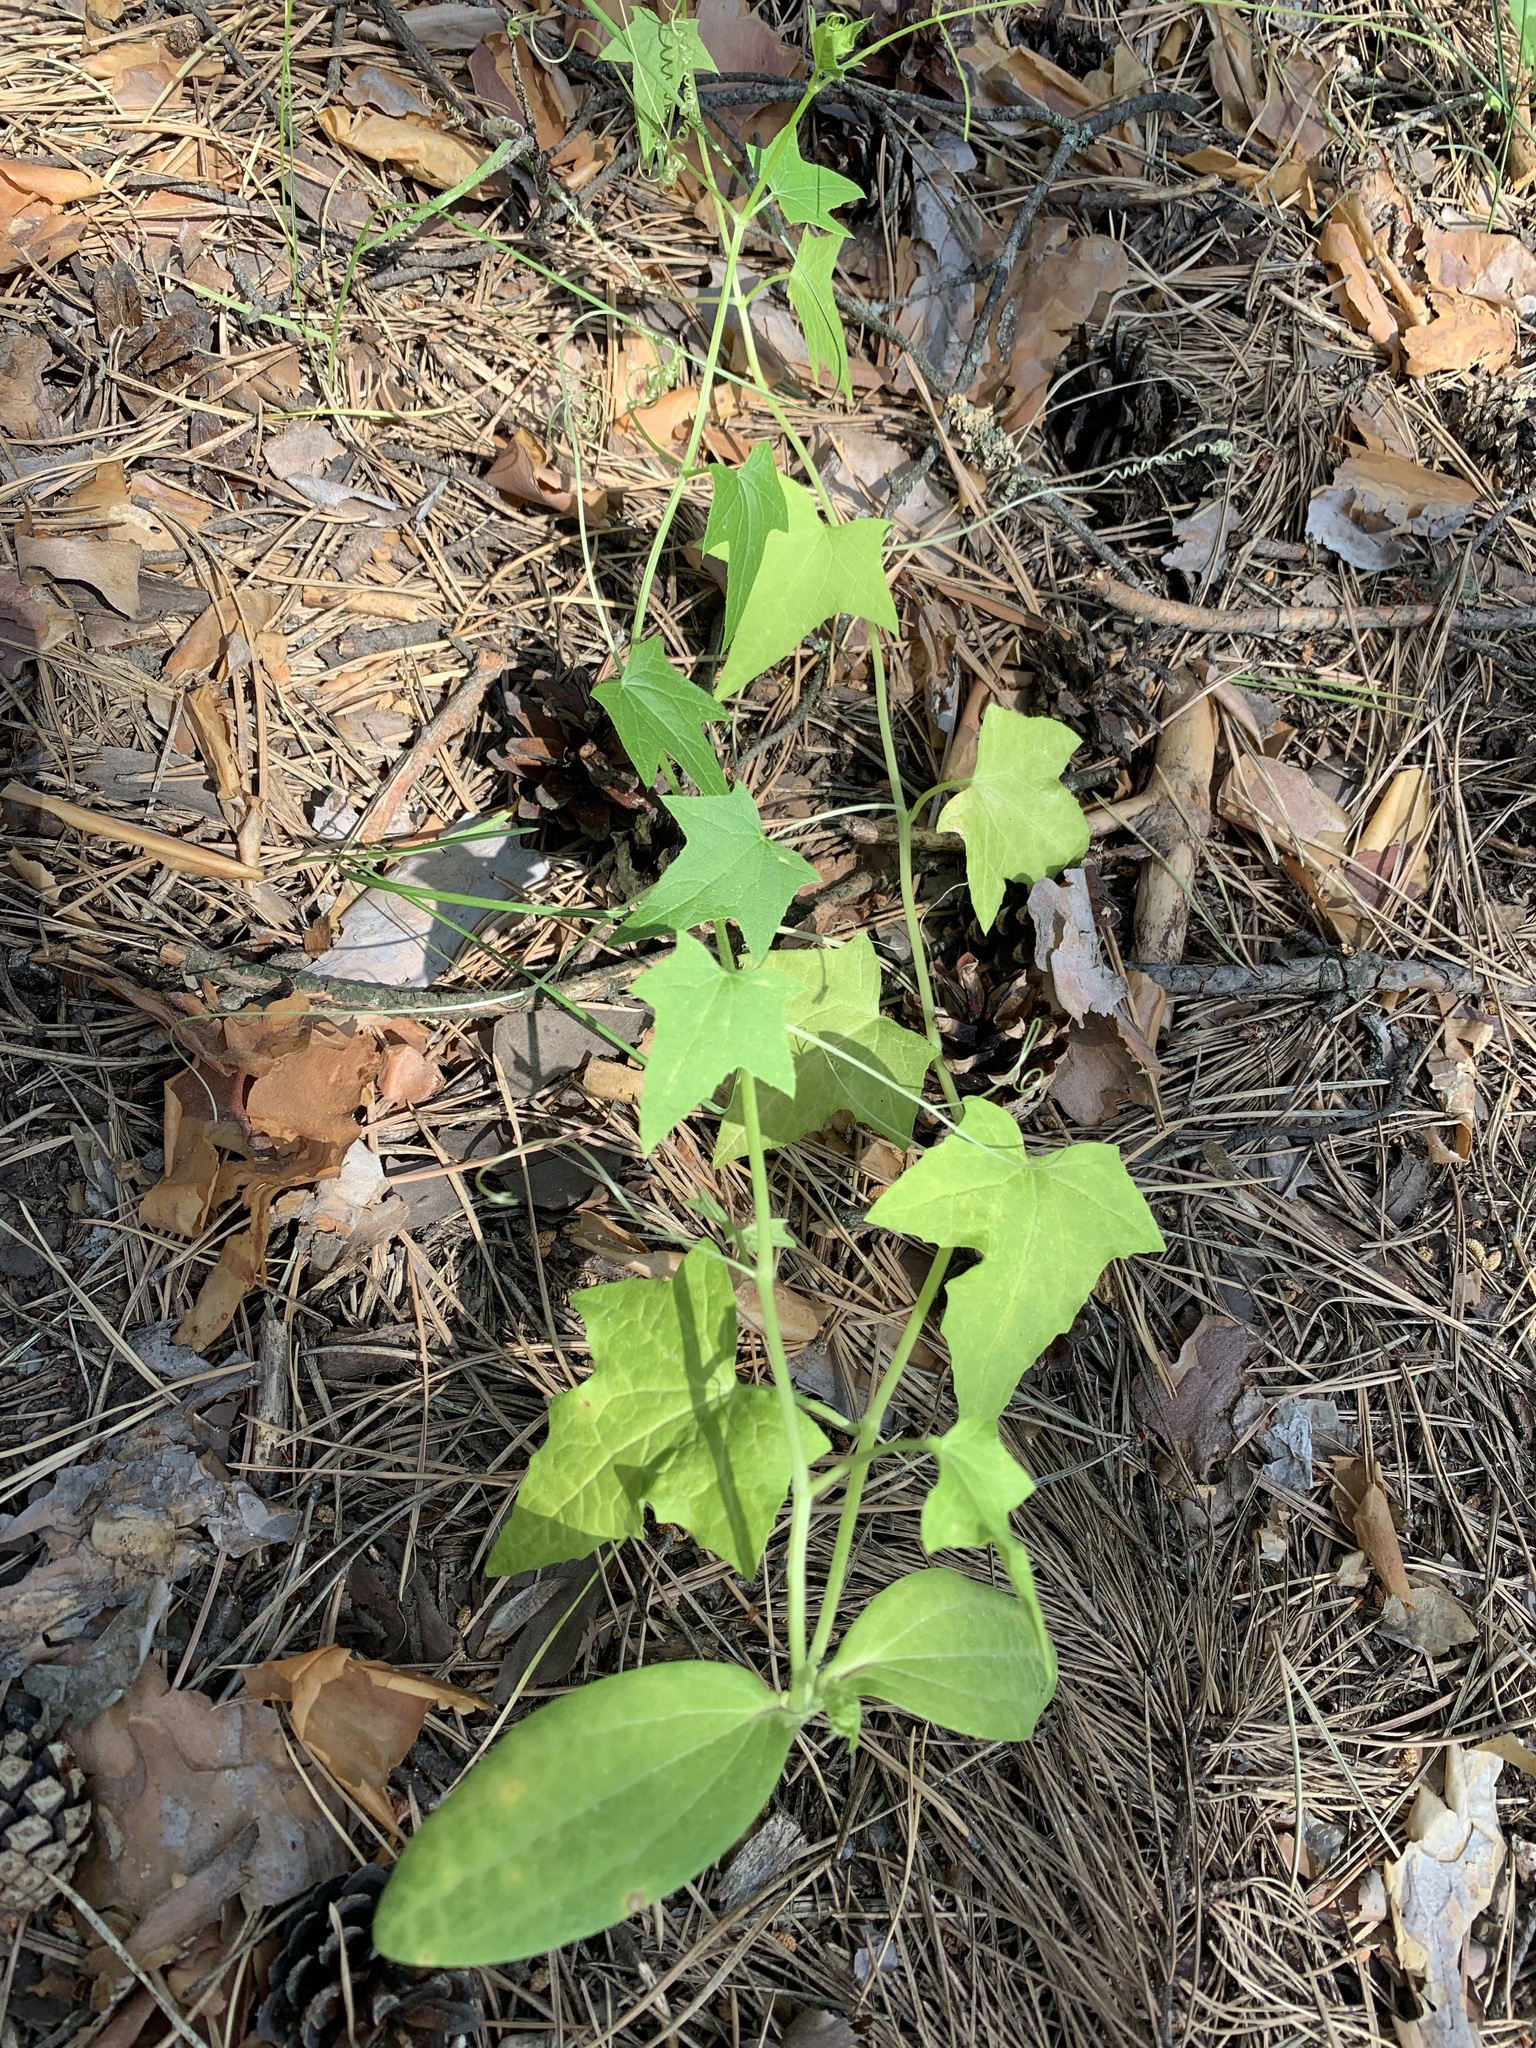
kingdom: Plantae
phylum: Tracheophyta
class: Magnoliopsida
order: Cucurbitales
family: Cucurbitaceae
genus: Echinocystis
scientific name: Echinocystis lobata
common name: Wild cucumber
